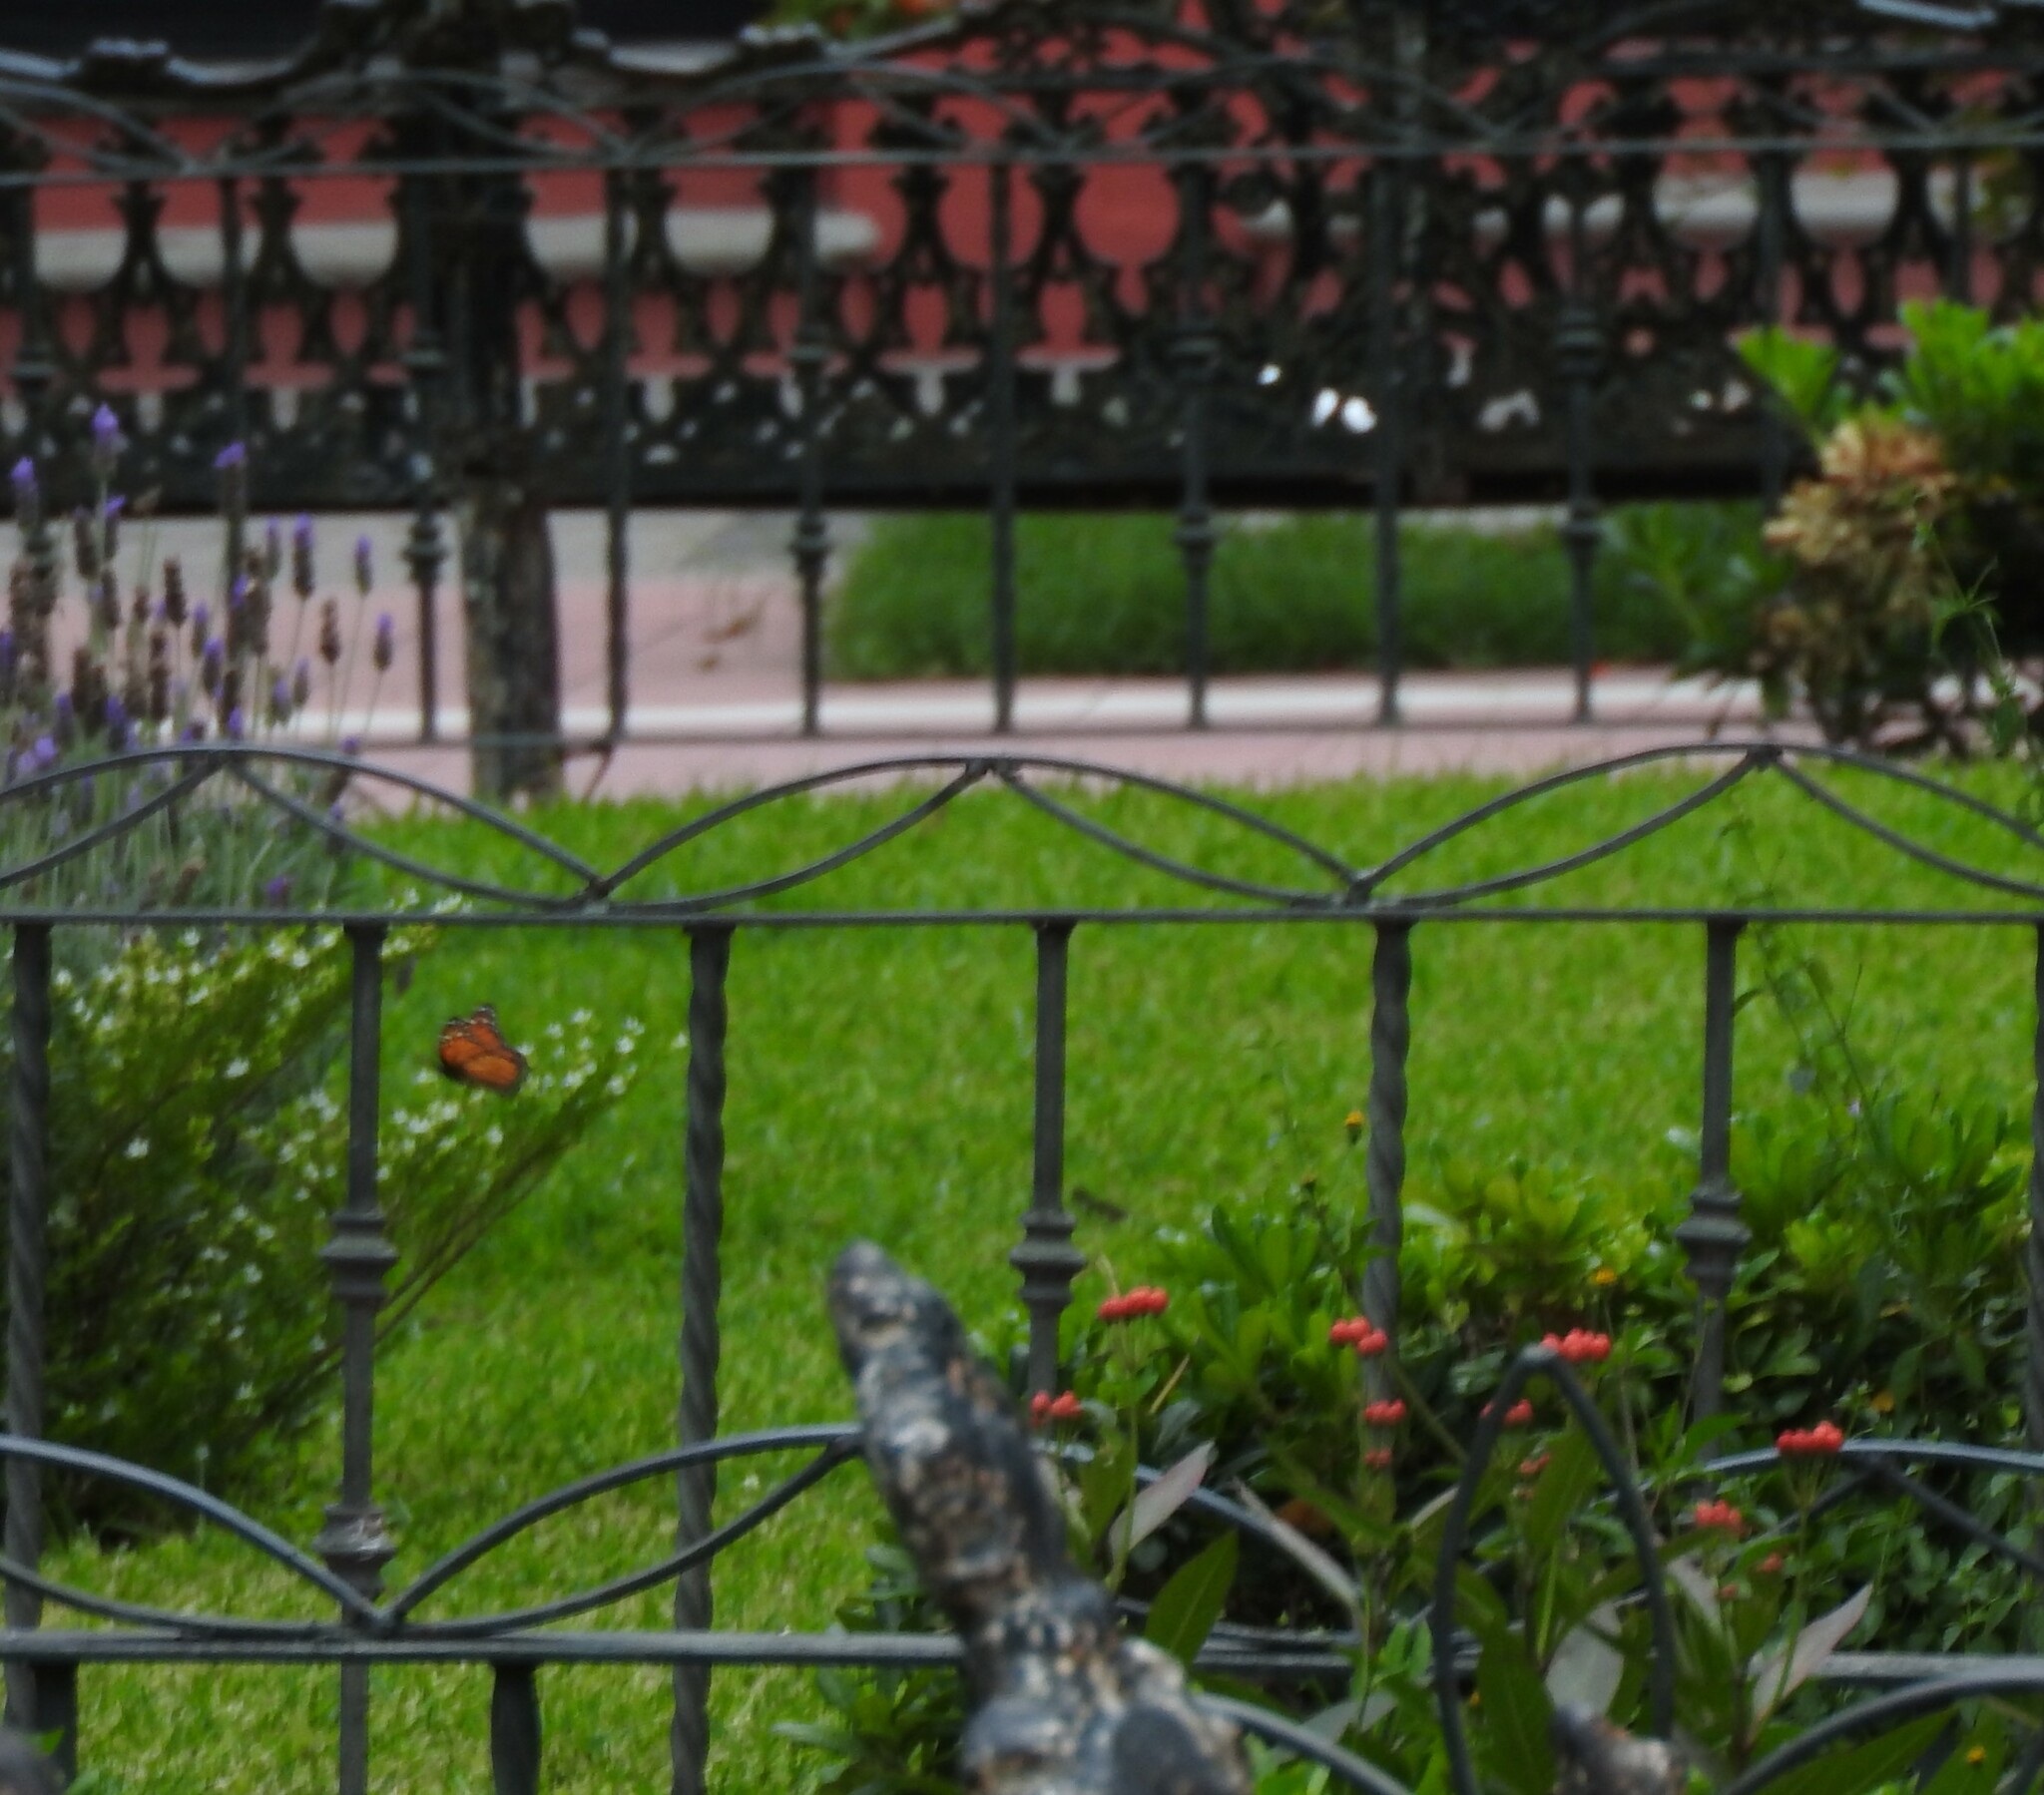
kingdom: Animalia
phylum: Arthropoda
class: Insecta
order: Lepidoptera
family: Nymphalidae
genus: Danaus
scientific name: Danaus plexippus
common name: Monarch
